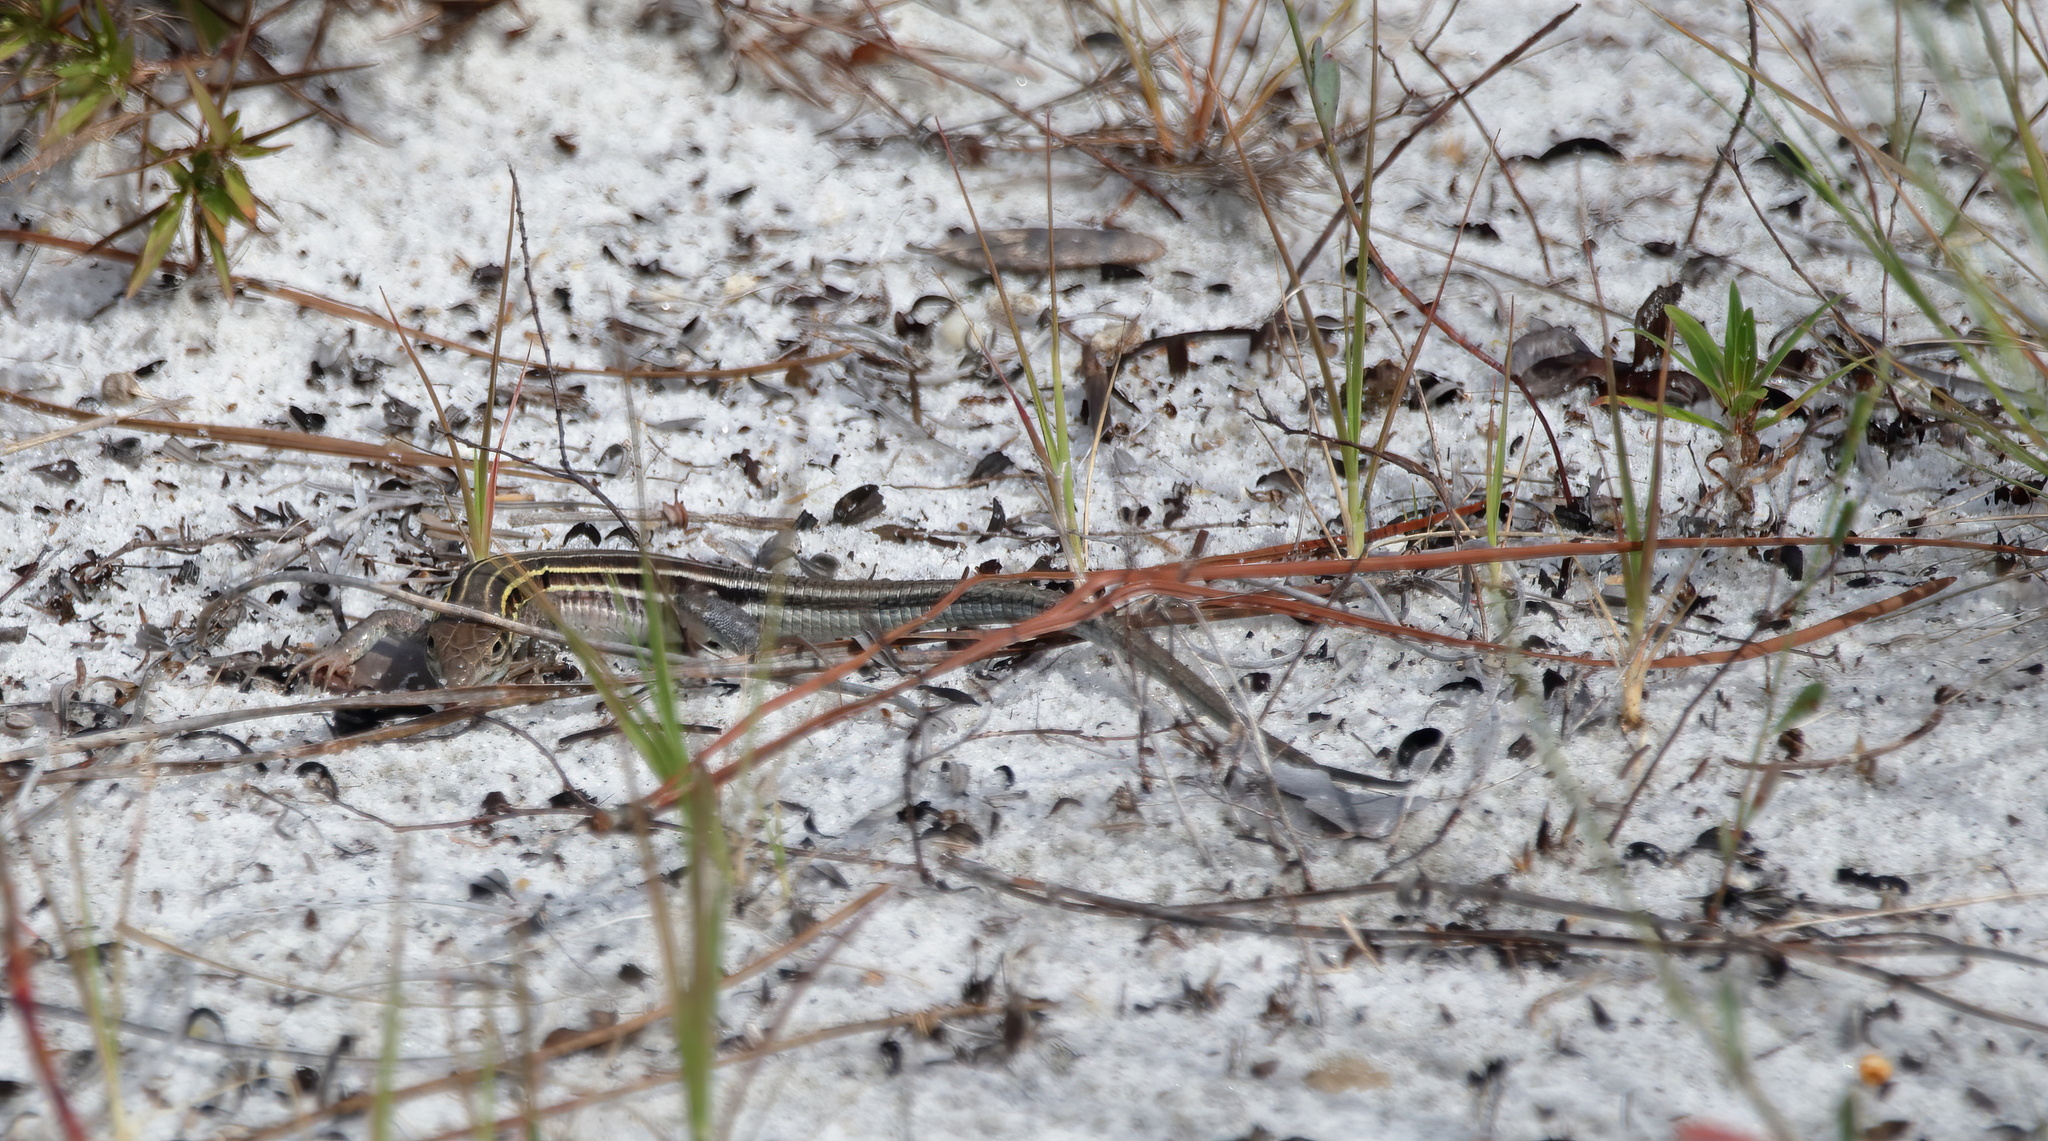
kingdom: Animalia
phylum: Chordata
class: Squamata
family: Teiidae
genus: Aspidoscelis
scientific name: Aspidoscelis sexlineatus
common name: Six-lined racerunner
